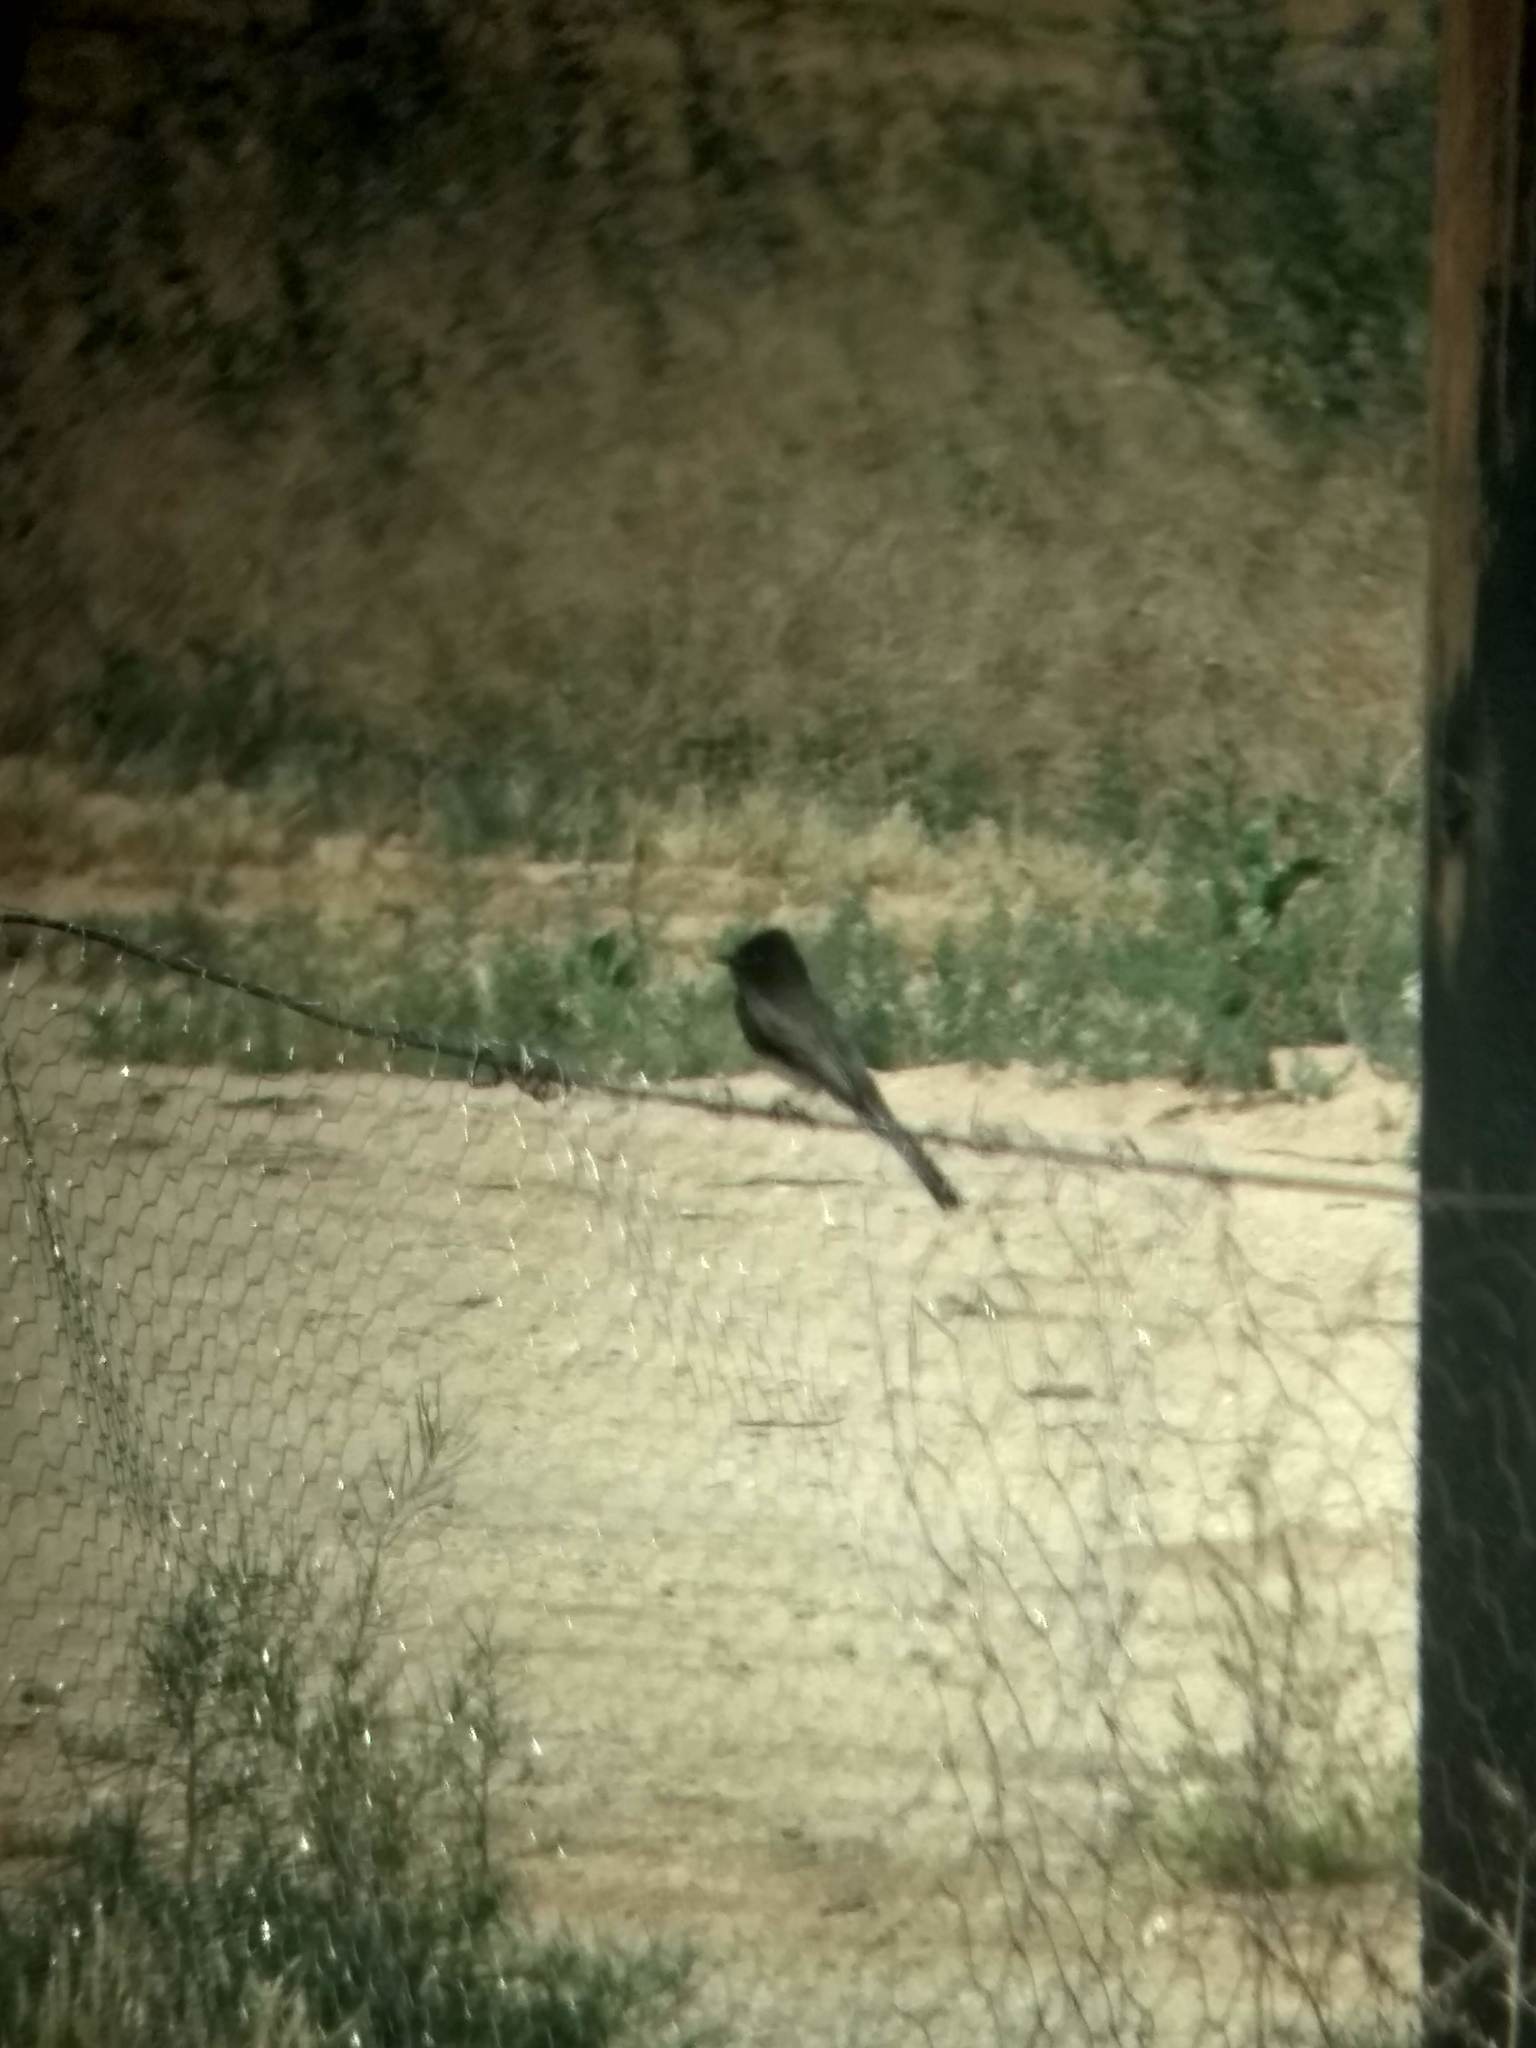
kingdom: Animalia
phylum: Chordata
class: Aves
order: Passeriformes
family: Tyrannidae
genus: Sayornis
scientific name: Sayornis nigricans
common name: Black phoebe
